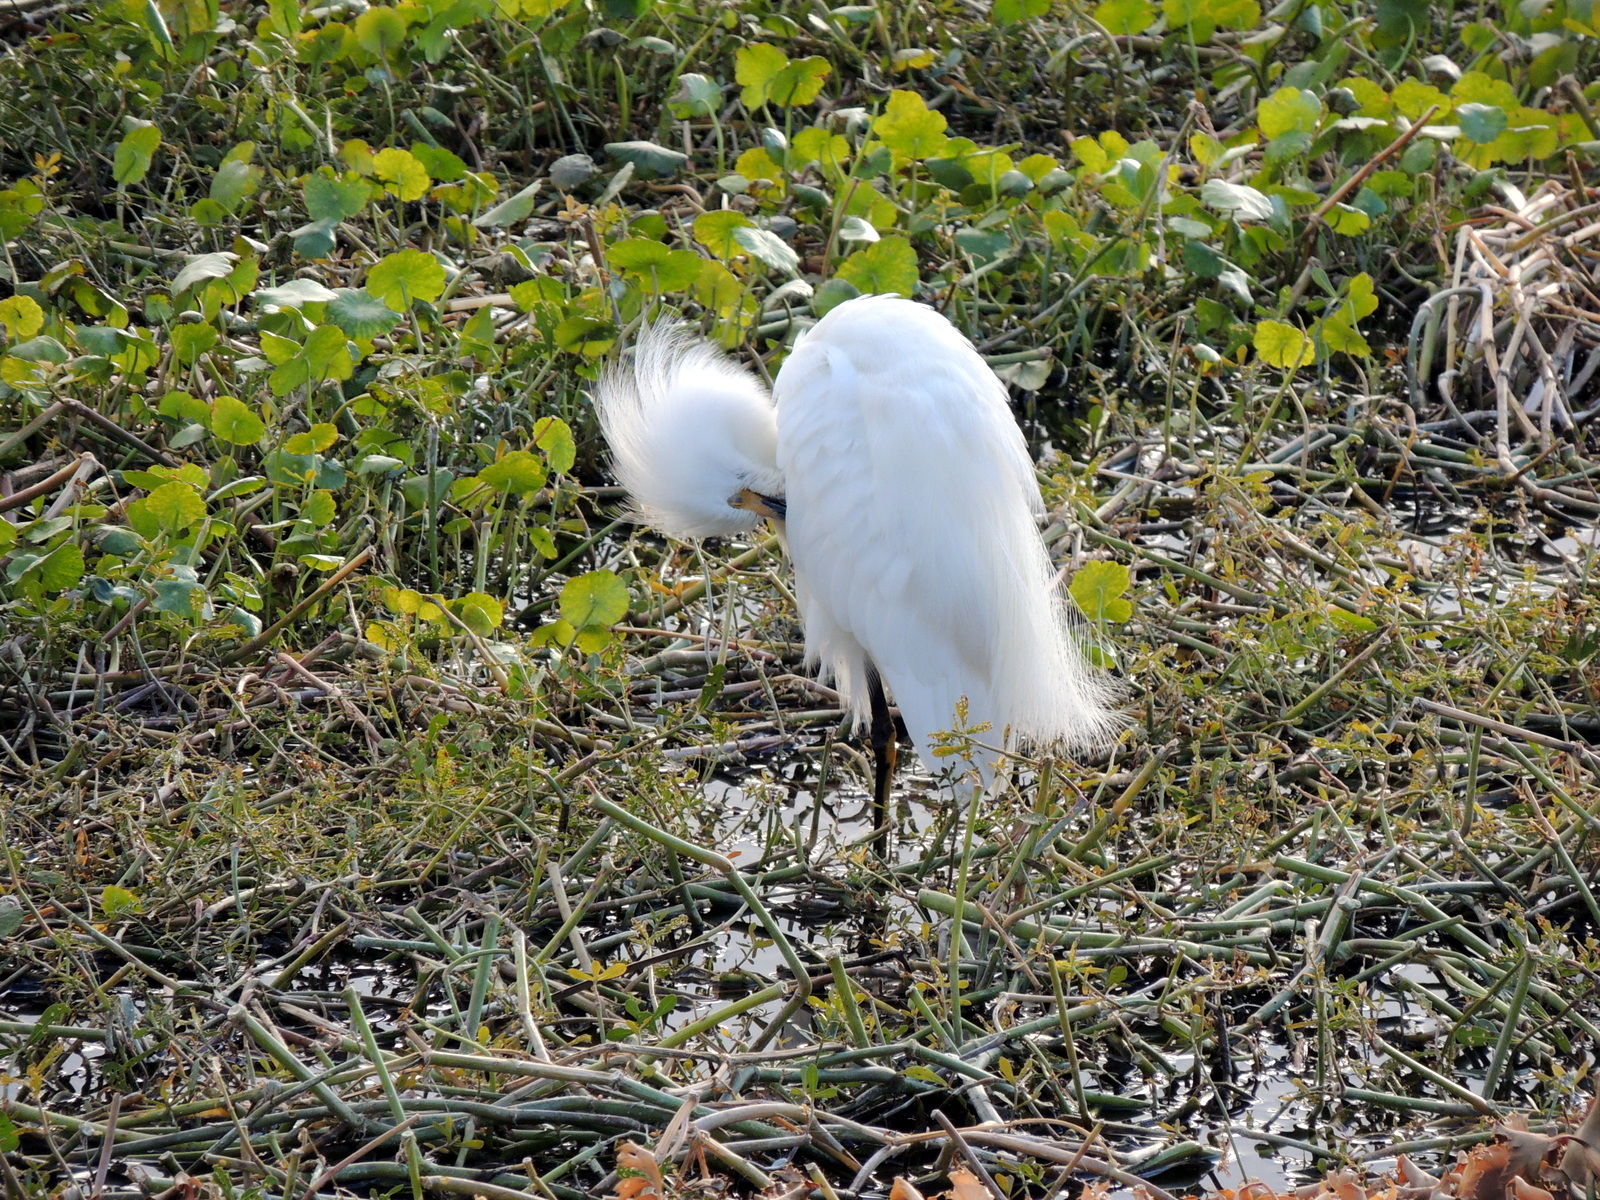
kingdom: Animalia
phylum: Chordata
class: Aves
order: Pelecaniformes
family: Ardeidae
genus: Egretta
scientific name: Egretta thula
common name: Snowy egret
